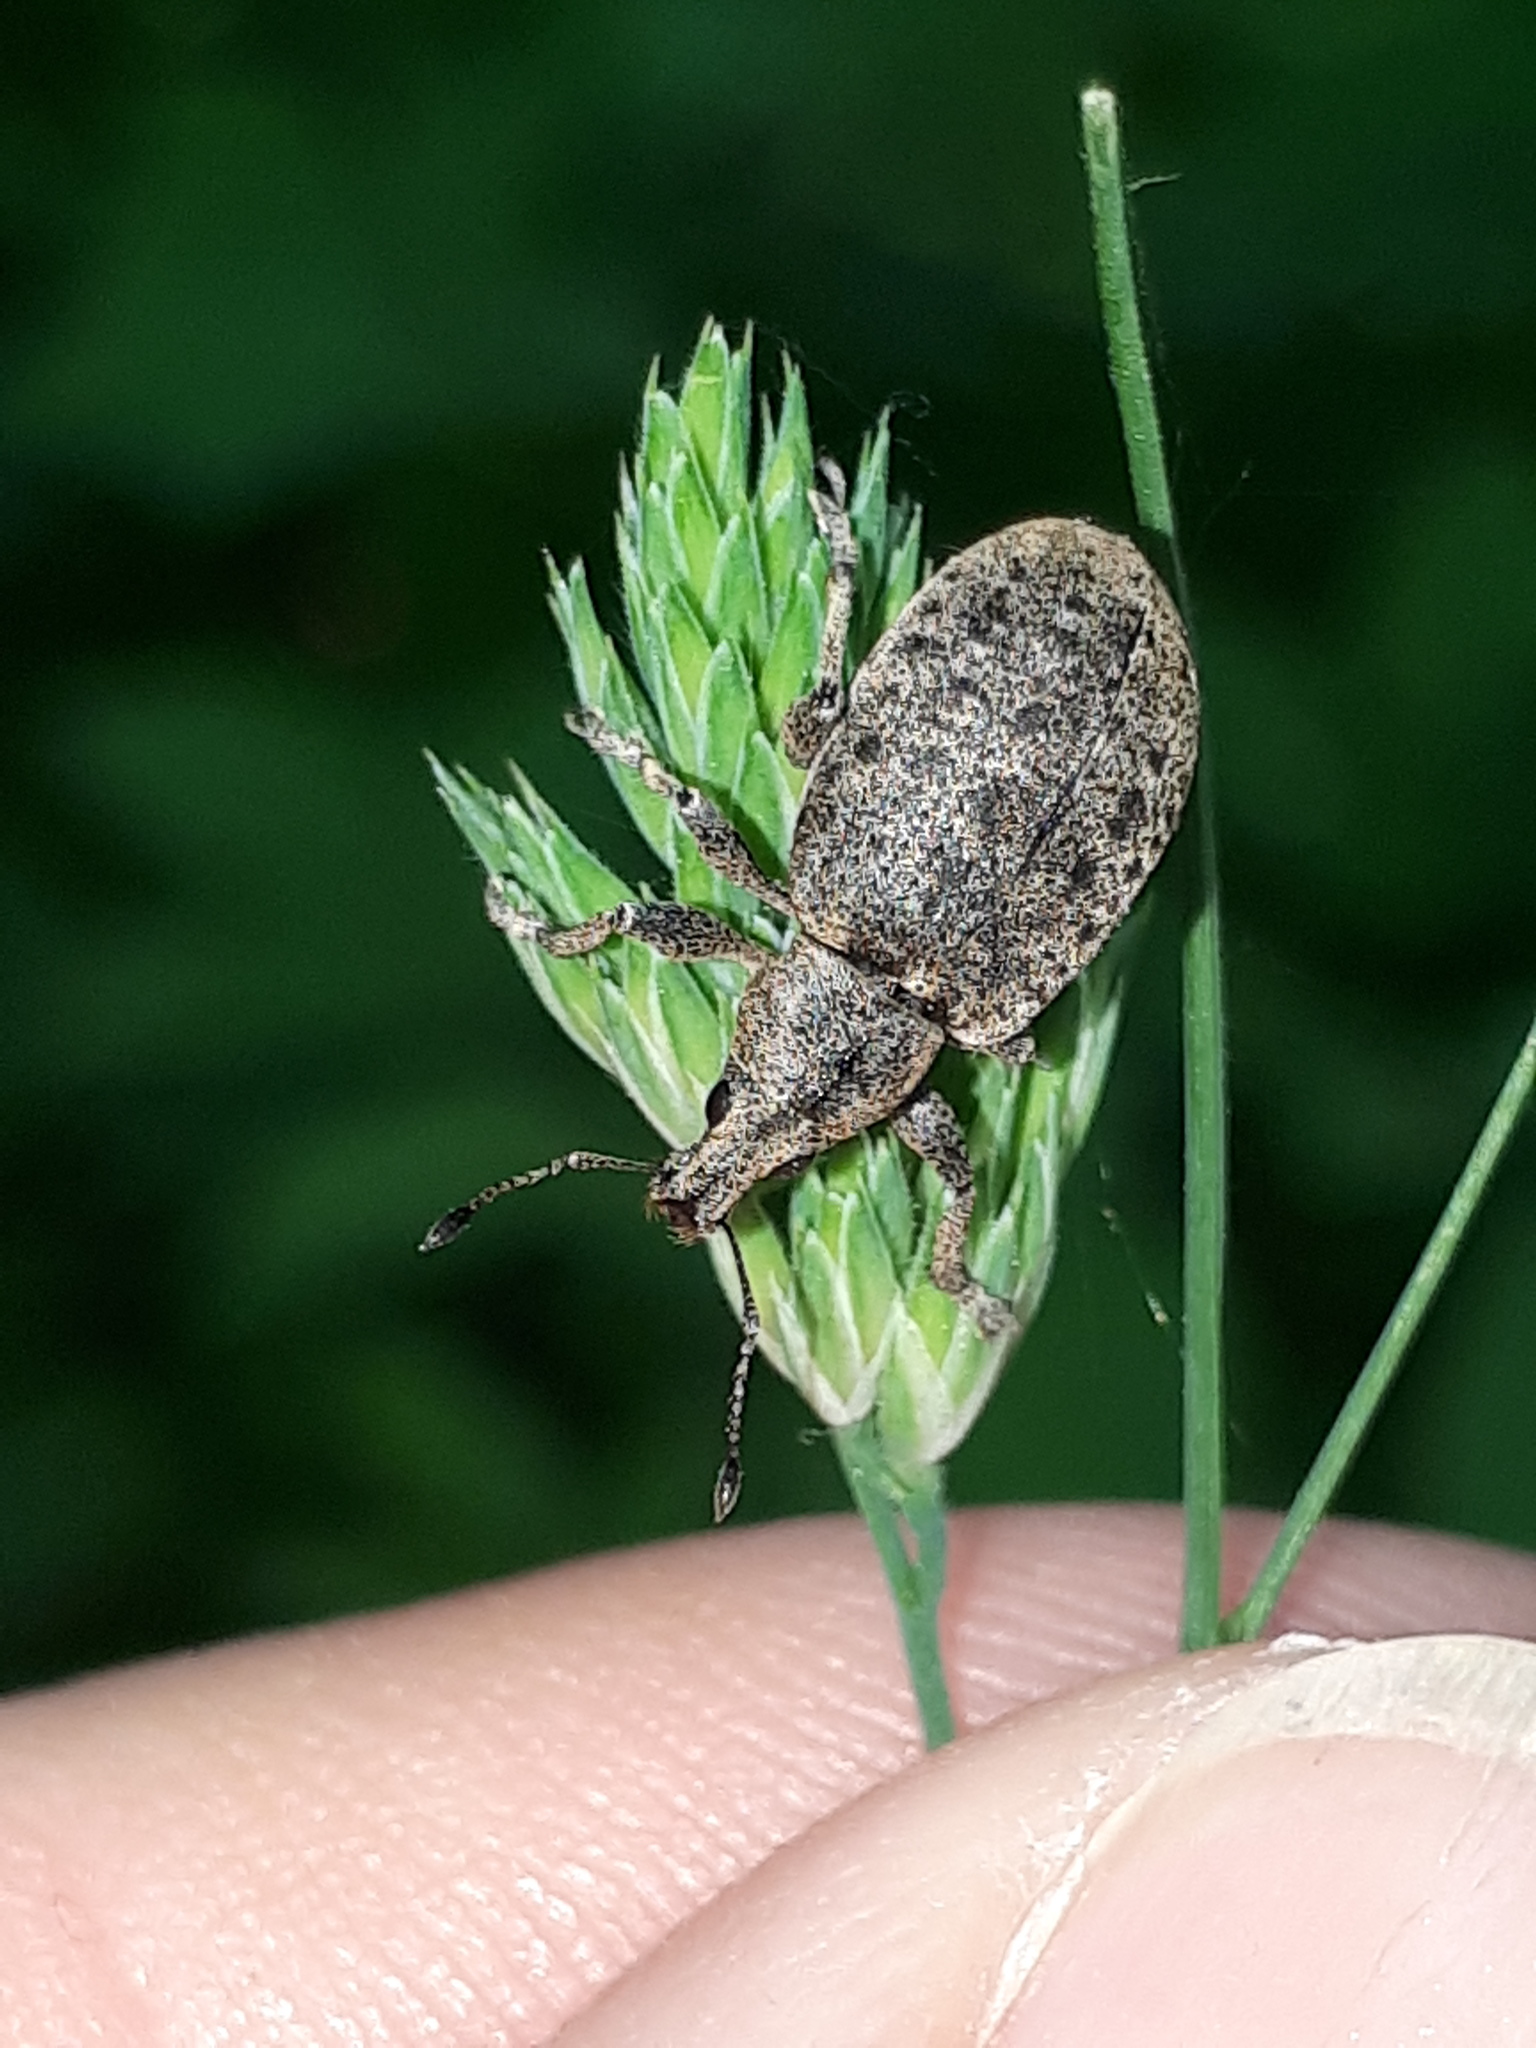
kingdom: Animalia
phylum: Arthropoda
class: Insecta
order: Coleoptera
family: Curculionidae
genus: Liophloeus
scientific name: Liophloeus tessulatus
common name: Weevil
